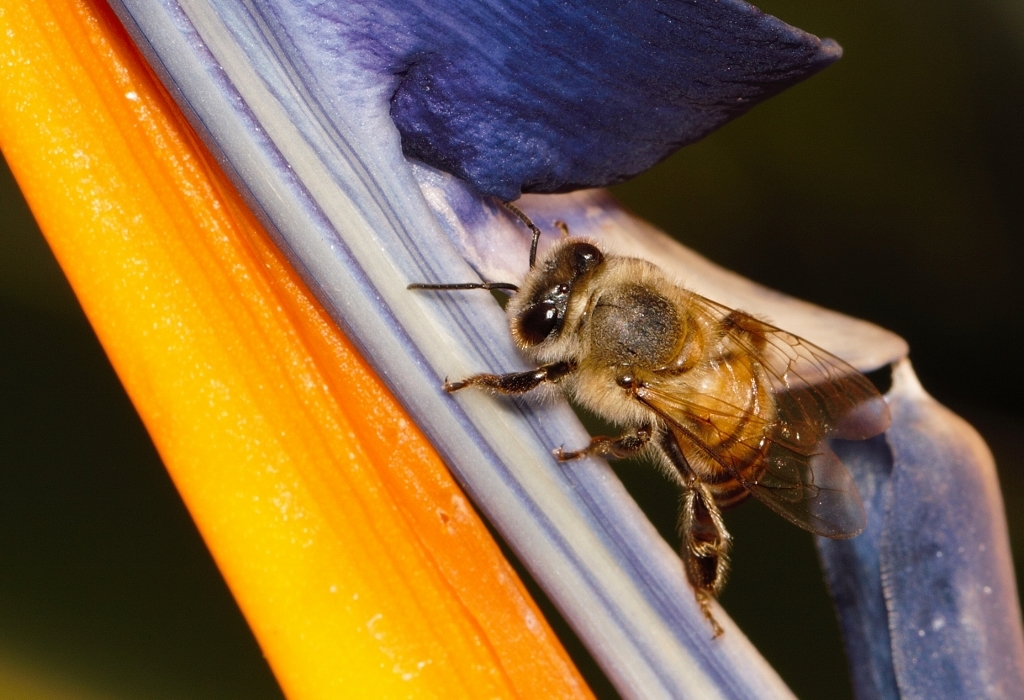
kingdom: Animalia
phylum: Arthropoda
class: Insecta
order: Hymenoptera
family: Apidae
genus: Apis
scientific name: Apis mellifera
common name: Honey bee
